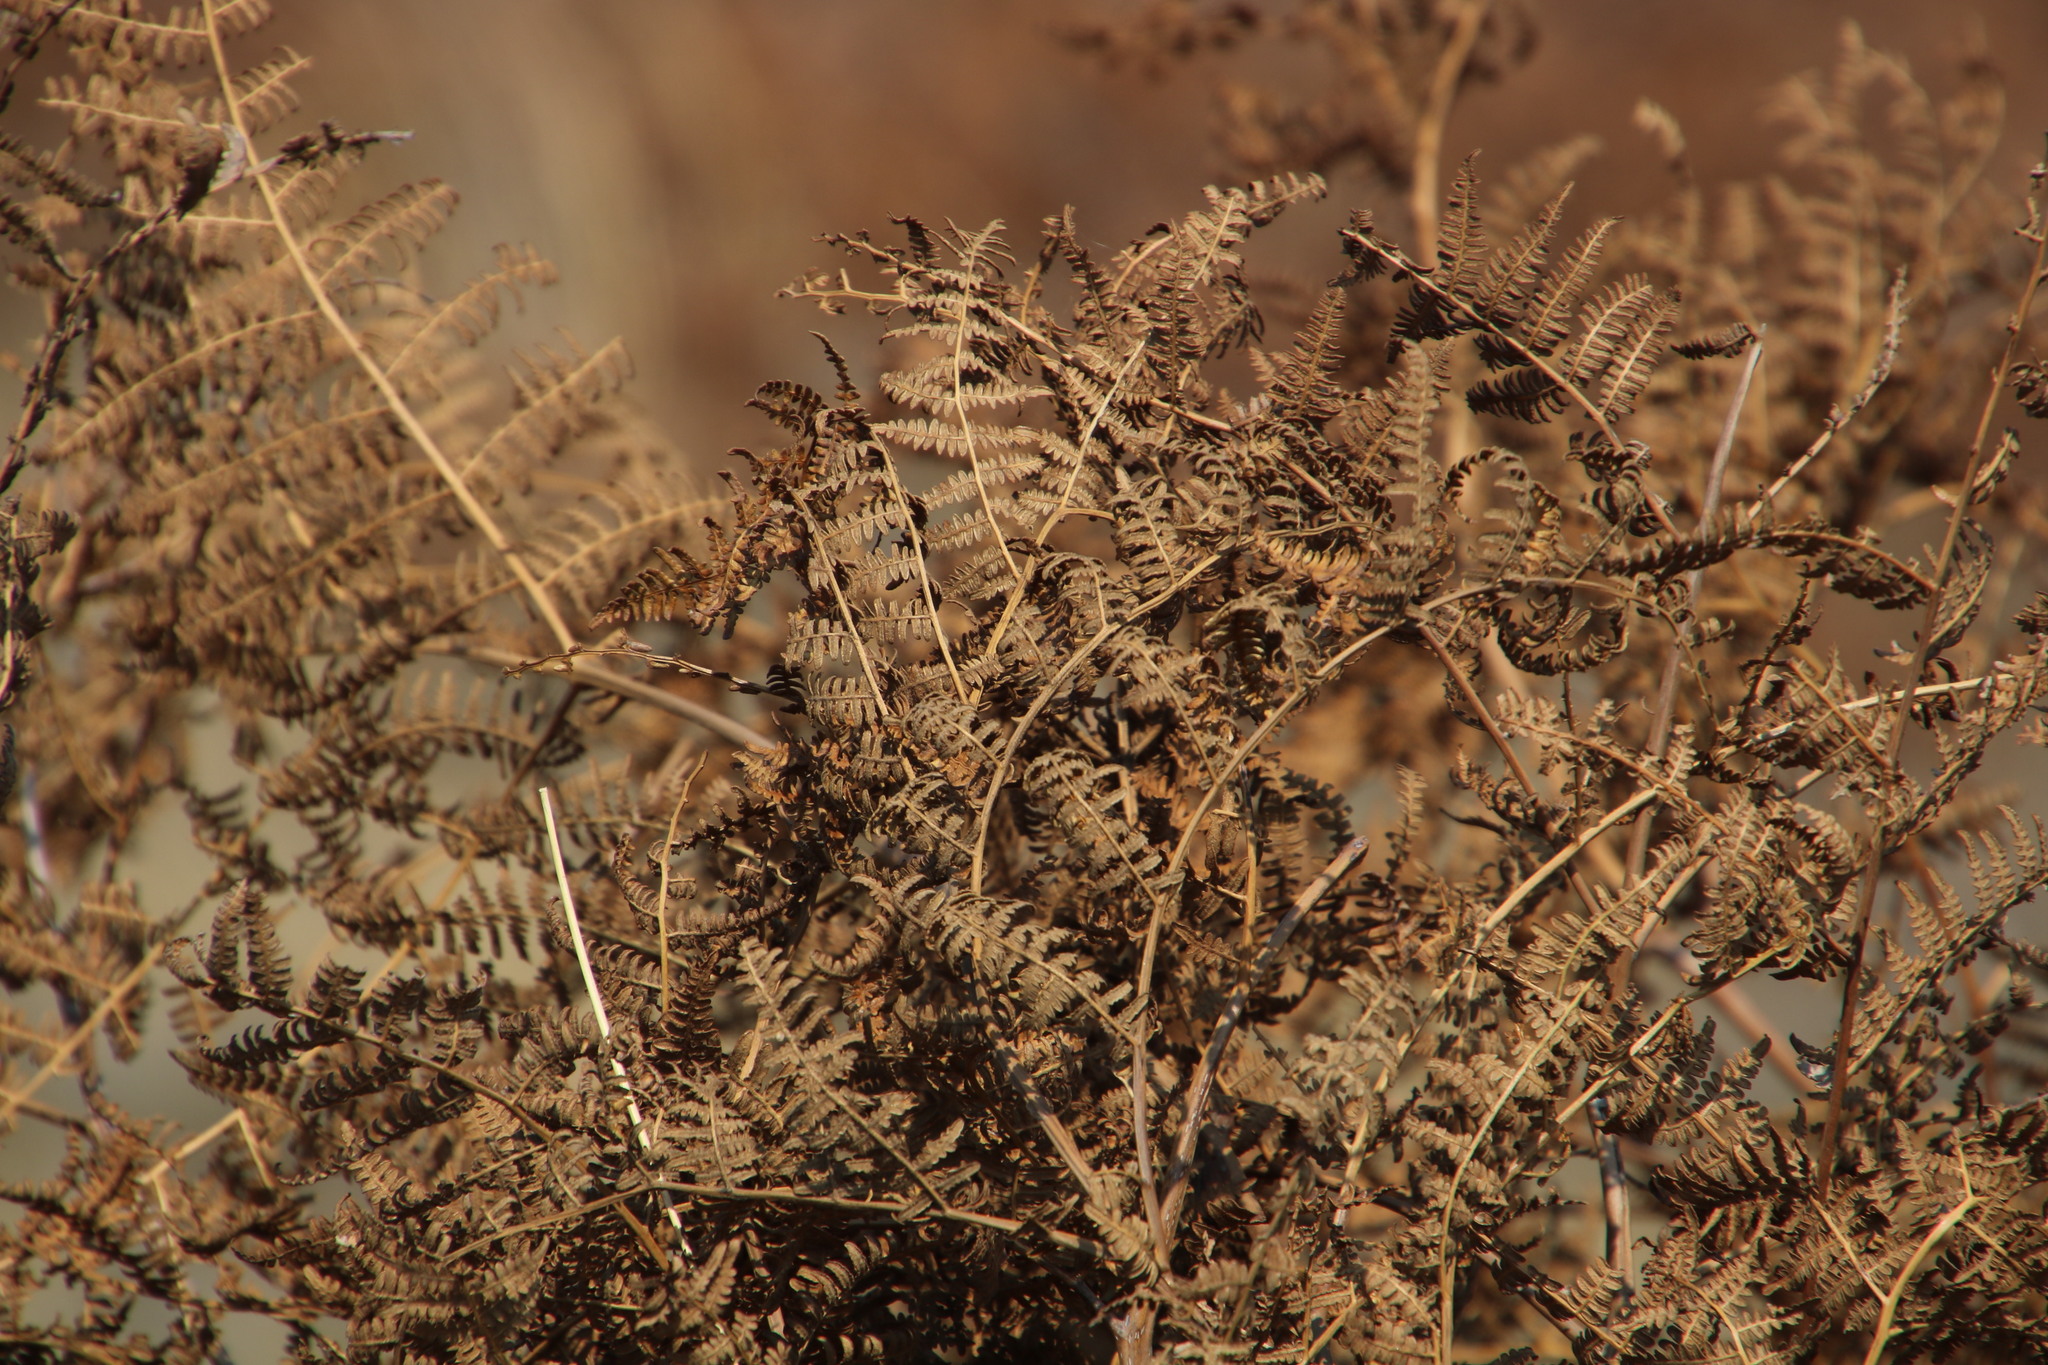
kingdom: Plantae
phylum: Tracheophyta
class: Polypodiopsida
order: Polypodiales
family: Dennstaedtiaceae
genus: Pteridium
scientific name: Pteridium aquilinum
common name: Bracken
